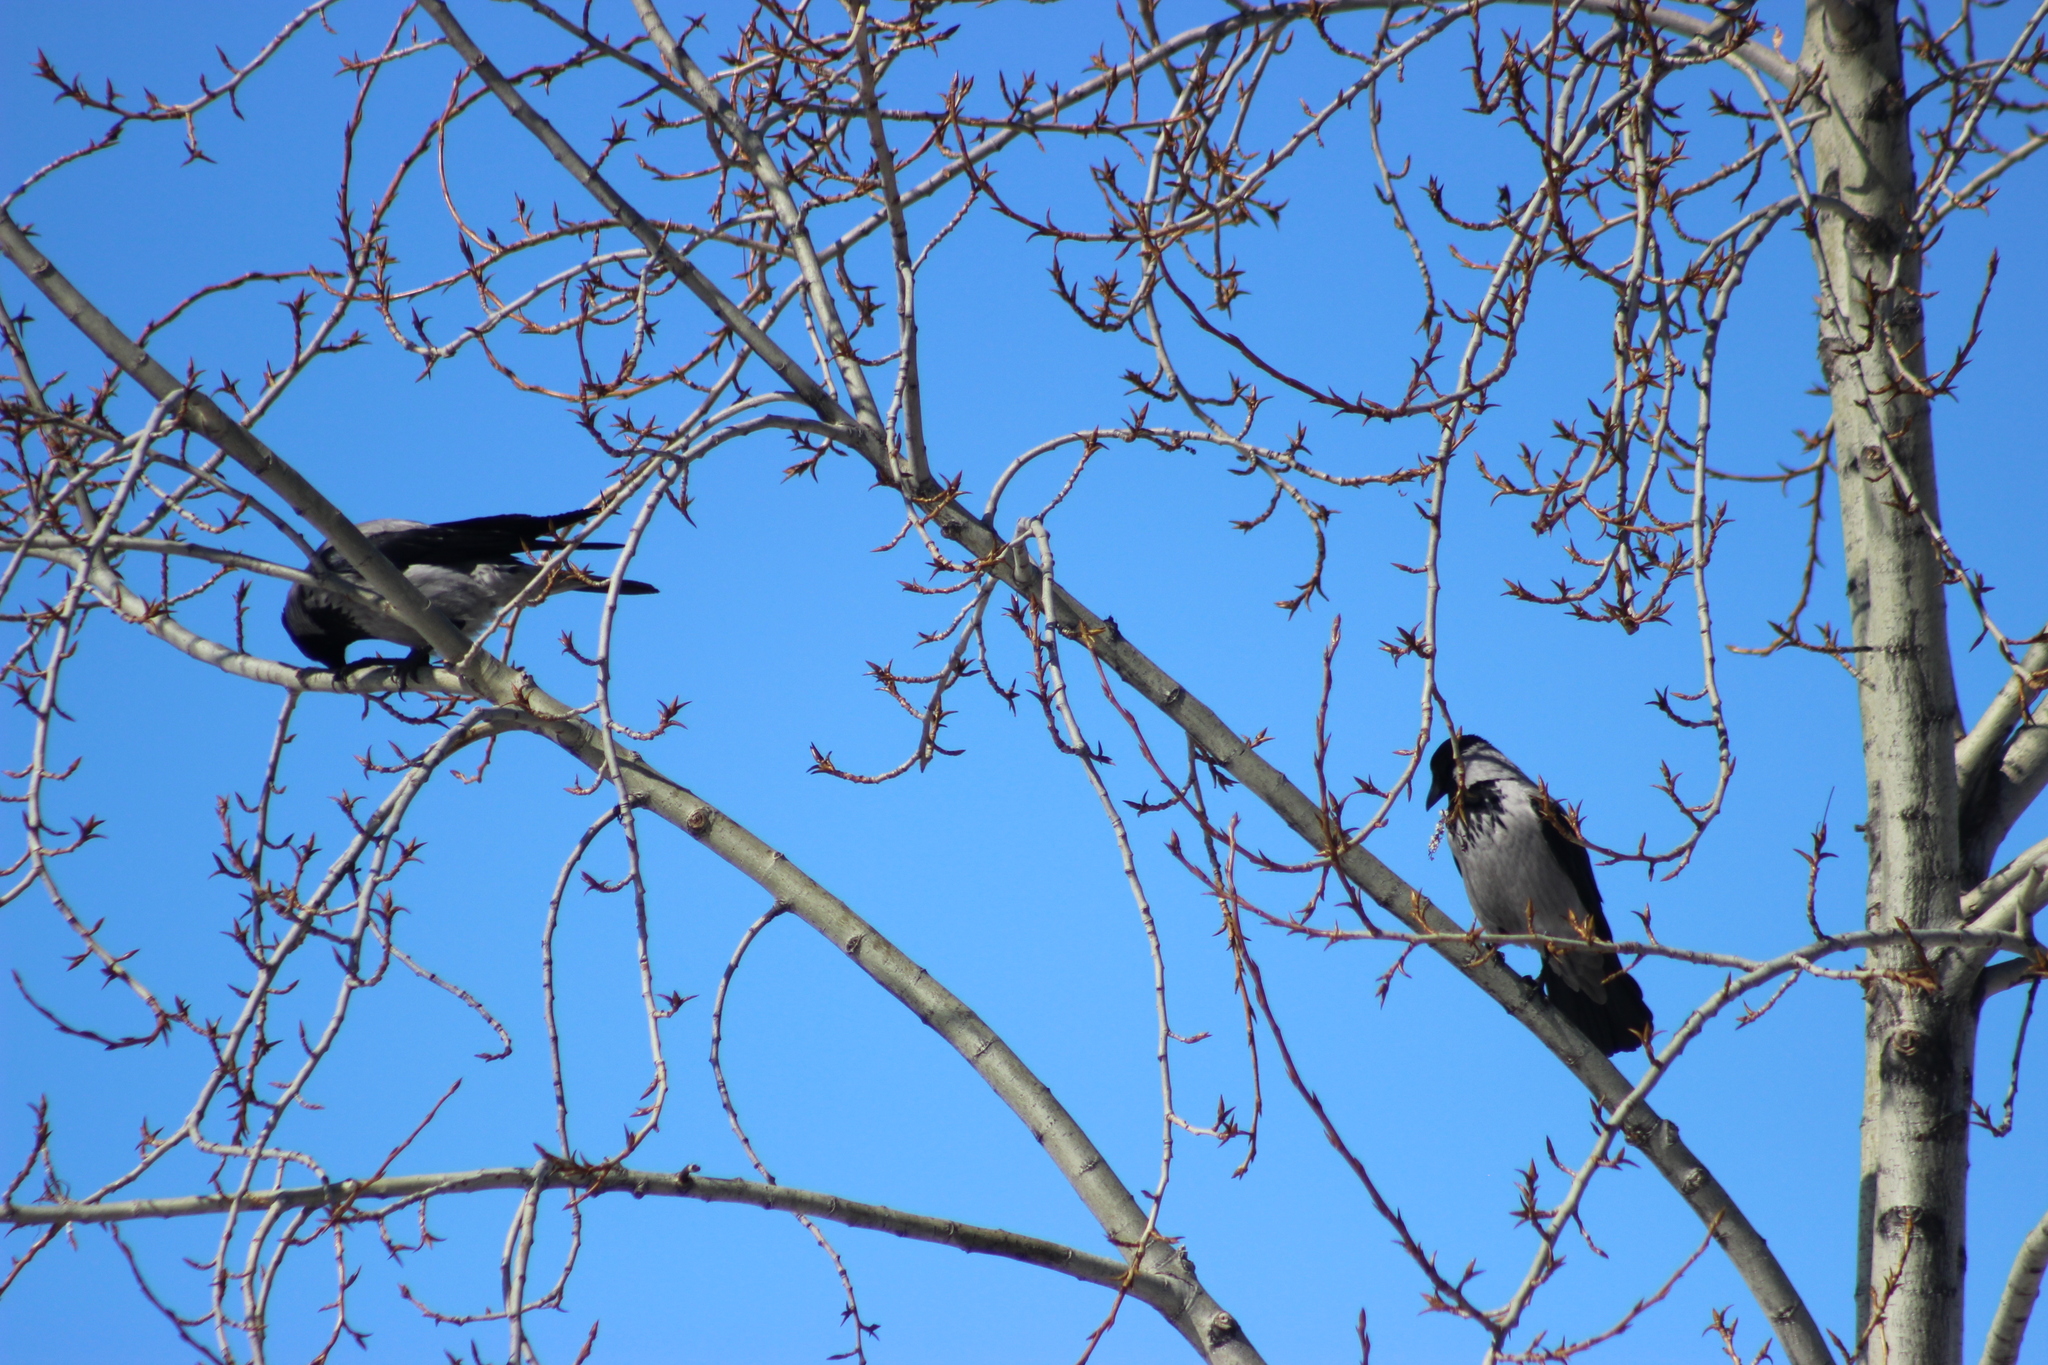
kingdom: Animalia
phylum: Chordata
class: Aves
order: Passeriformes
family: Corvidae
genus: Corvus
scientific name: Corvus cornix
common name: Hooded crow
